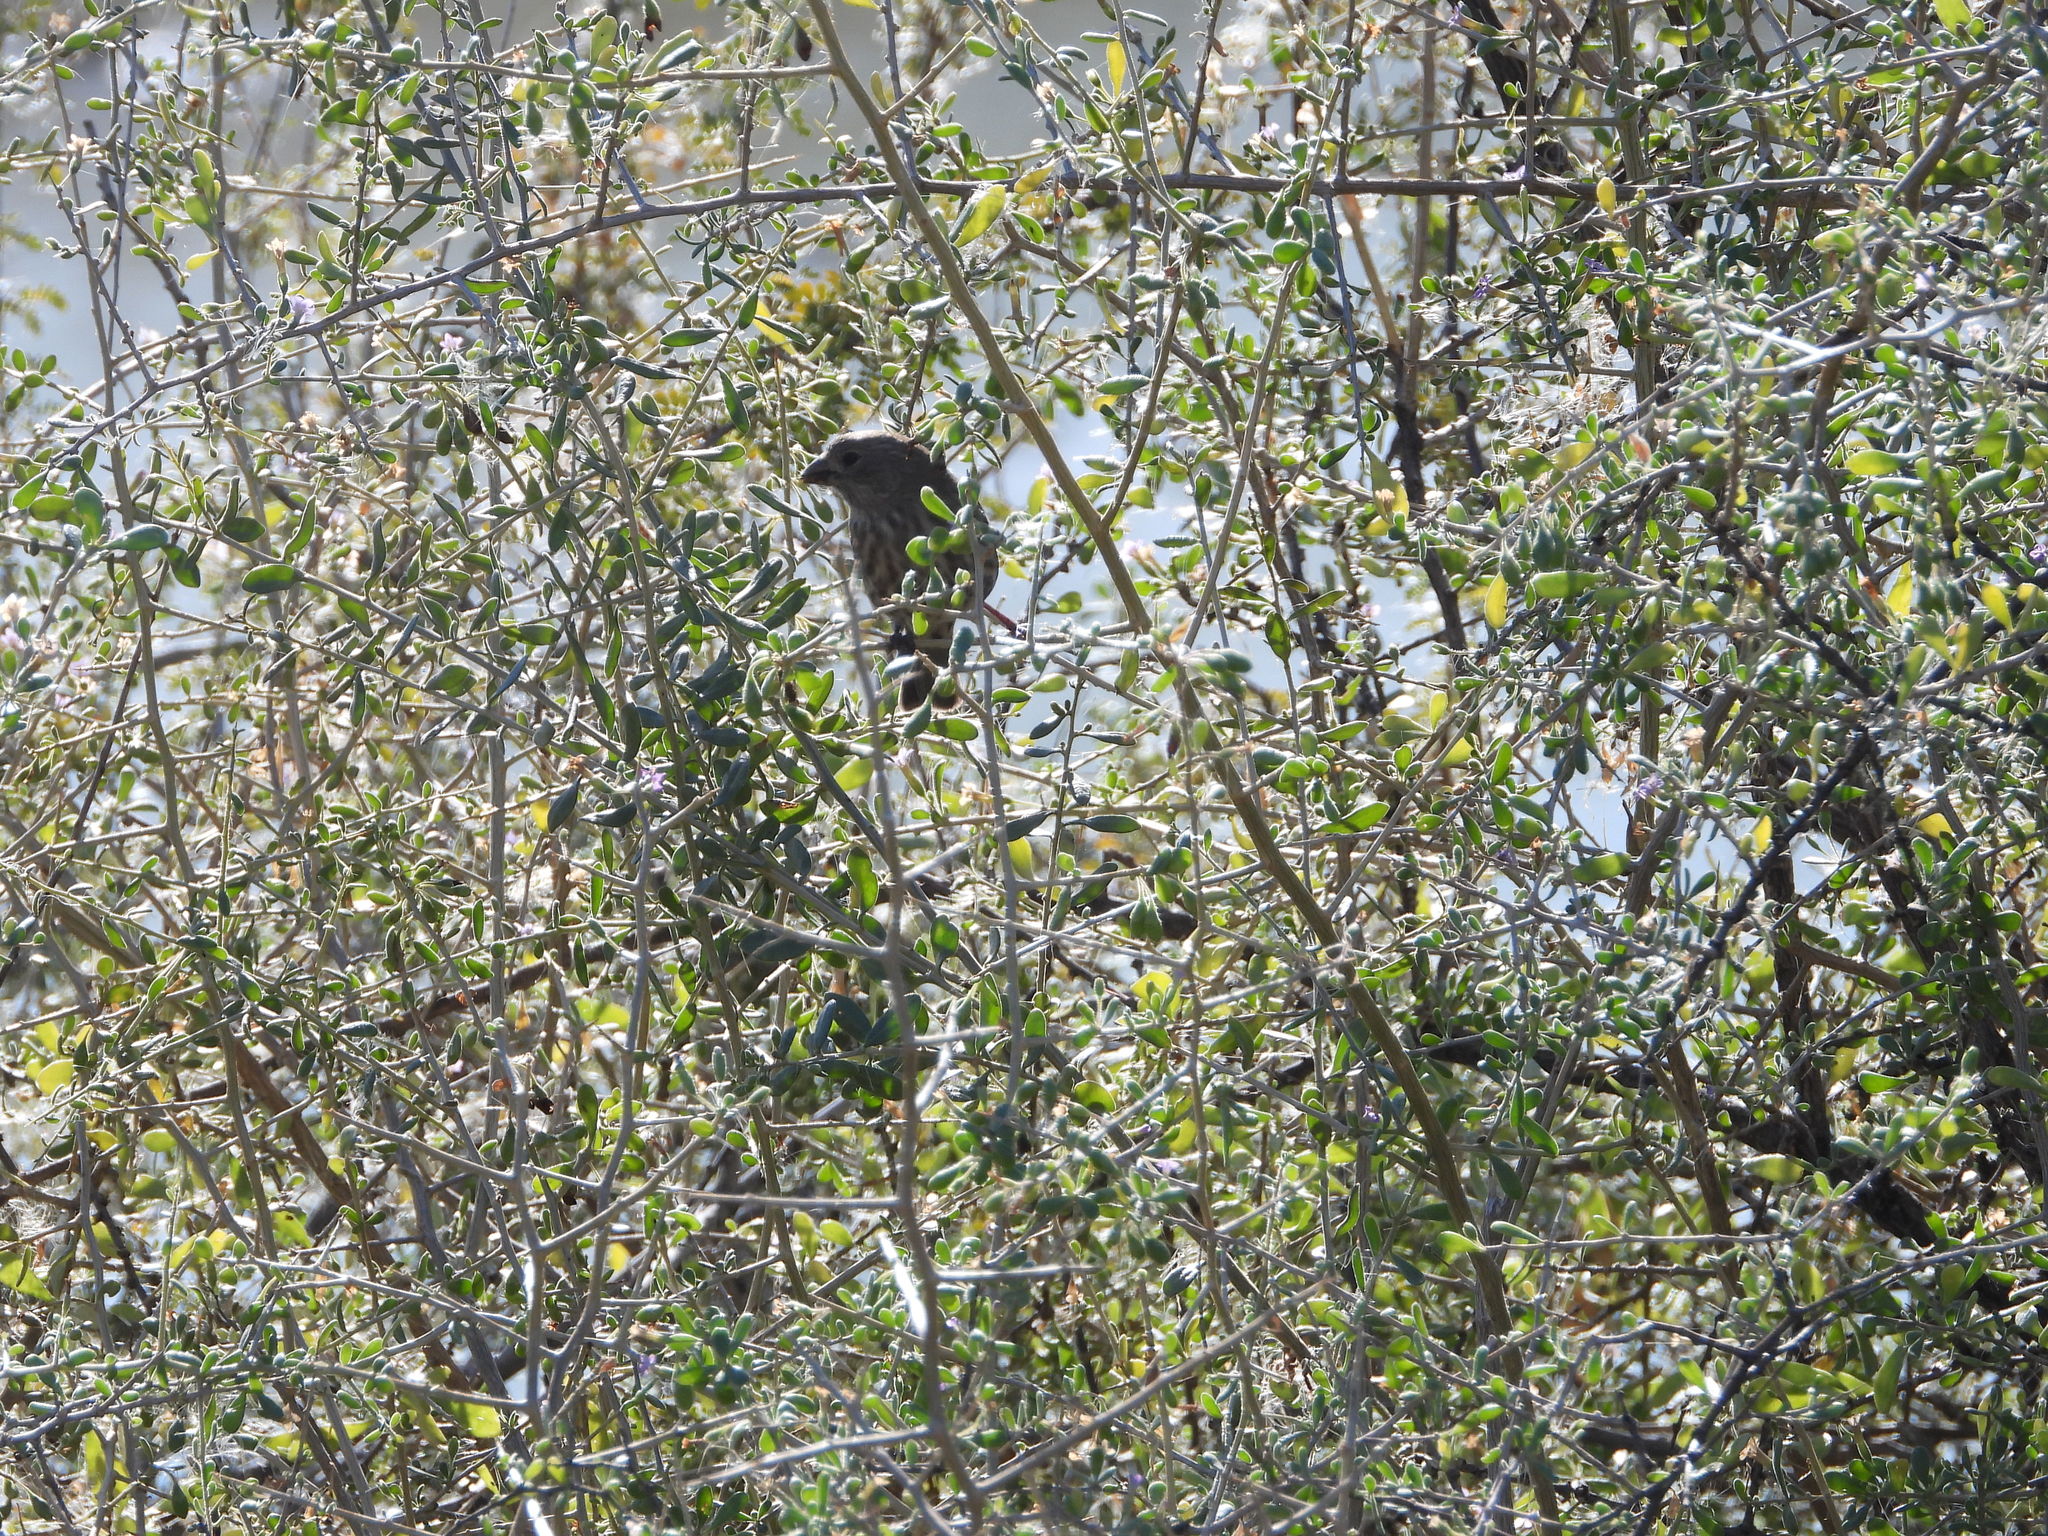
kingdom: Animalia
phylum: Chordata
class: Aves
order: Passeriformes
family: Fringillidae
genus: Haemorhous
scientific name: Haemorhous mexicanus
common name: House finch
